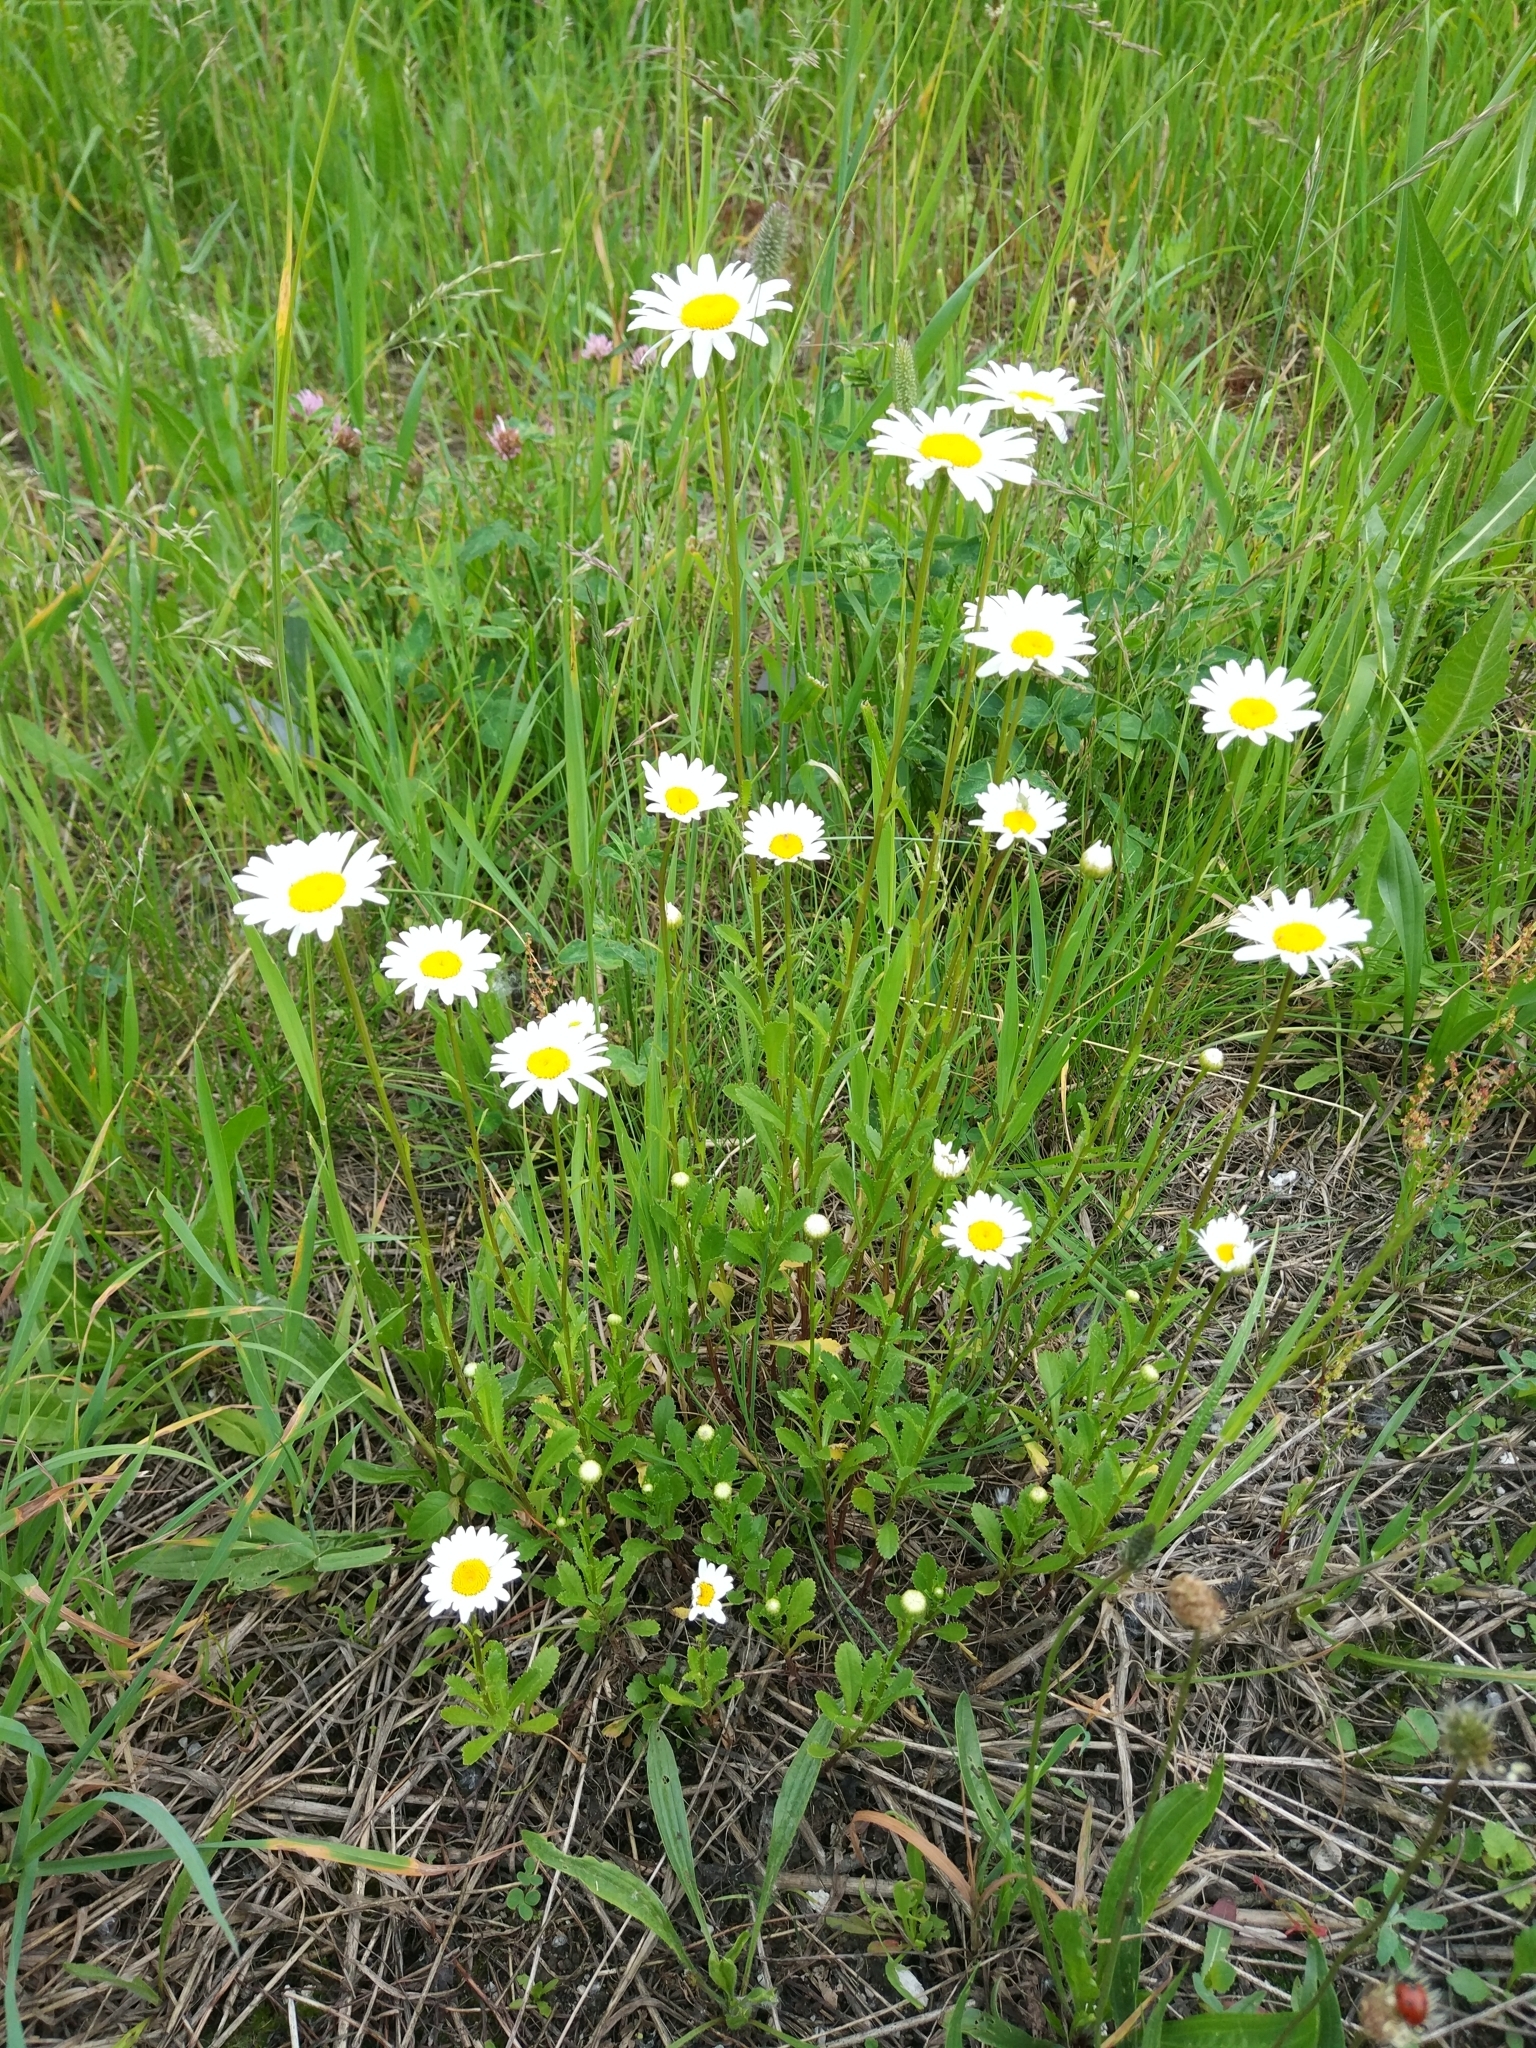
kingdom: Plantae
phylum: Tracheophyta
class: Magnoliopsida
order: Asterales
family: Asteraceae
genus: Leucanthemum
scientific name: Leucanthemum vulgare
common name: Oxeye daisy
